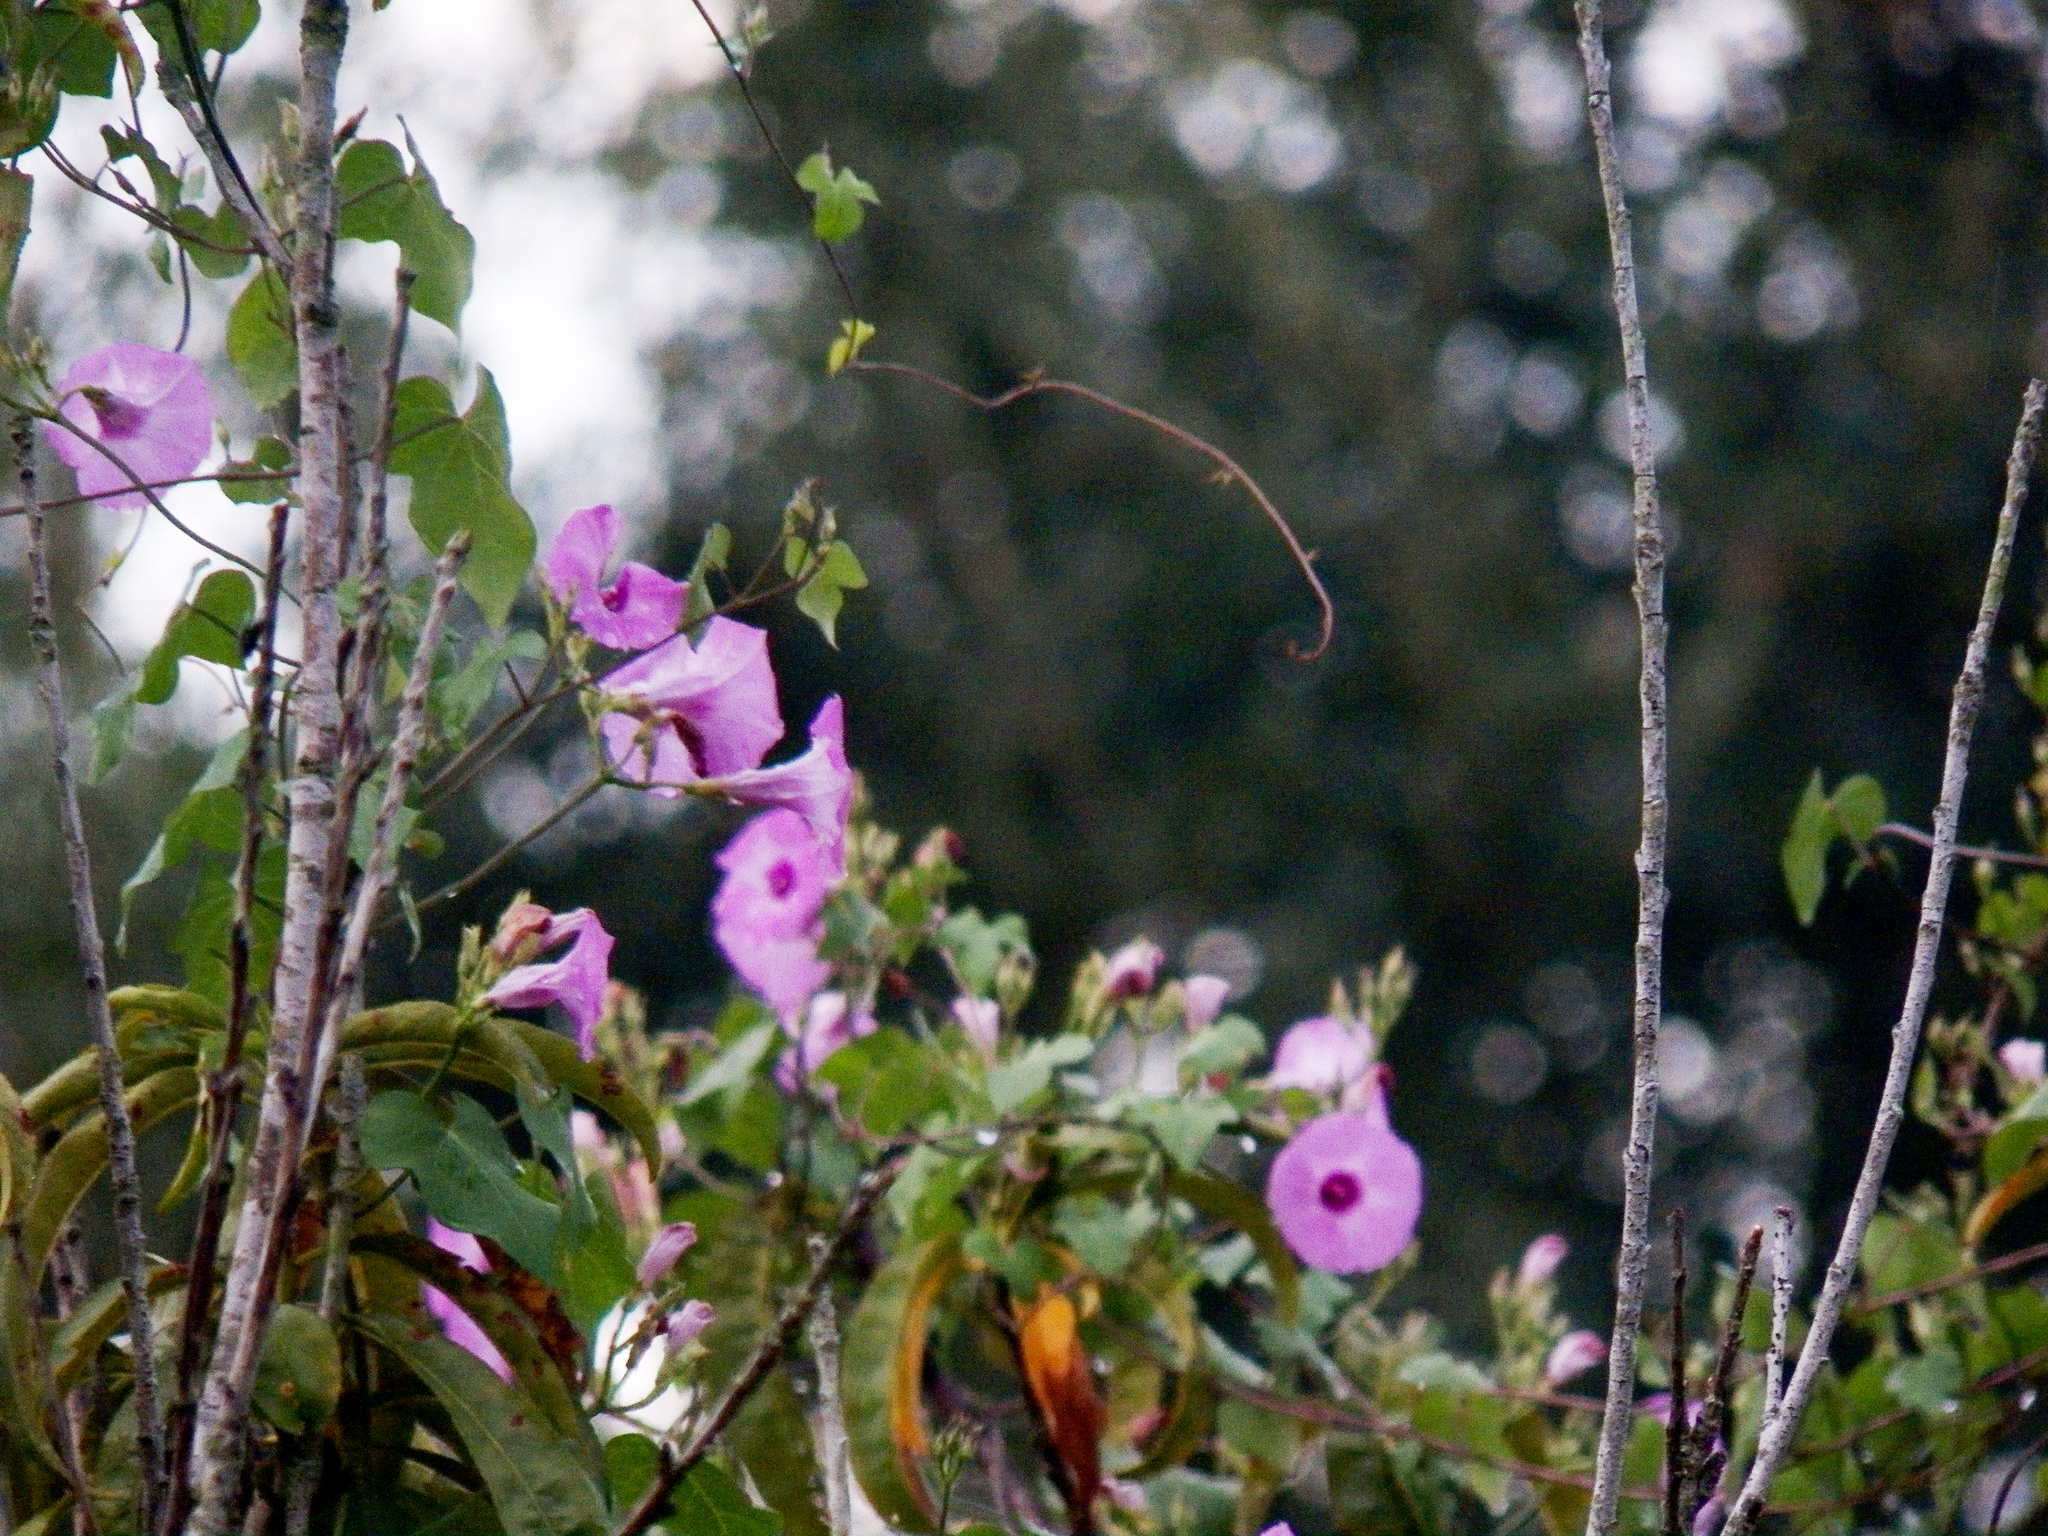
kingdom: Plantae
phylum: Tracheophyta
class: Magnoliopsida
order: Solanales
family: Convolvulaceae
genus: Ipomoea
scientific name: Ipomoea cordatotriloba
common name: Cotton morning glory
